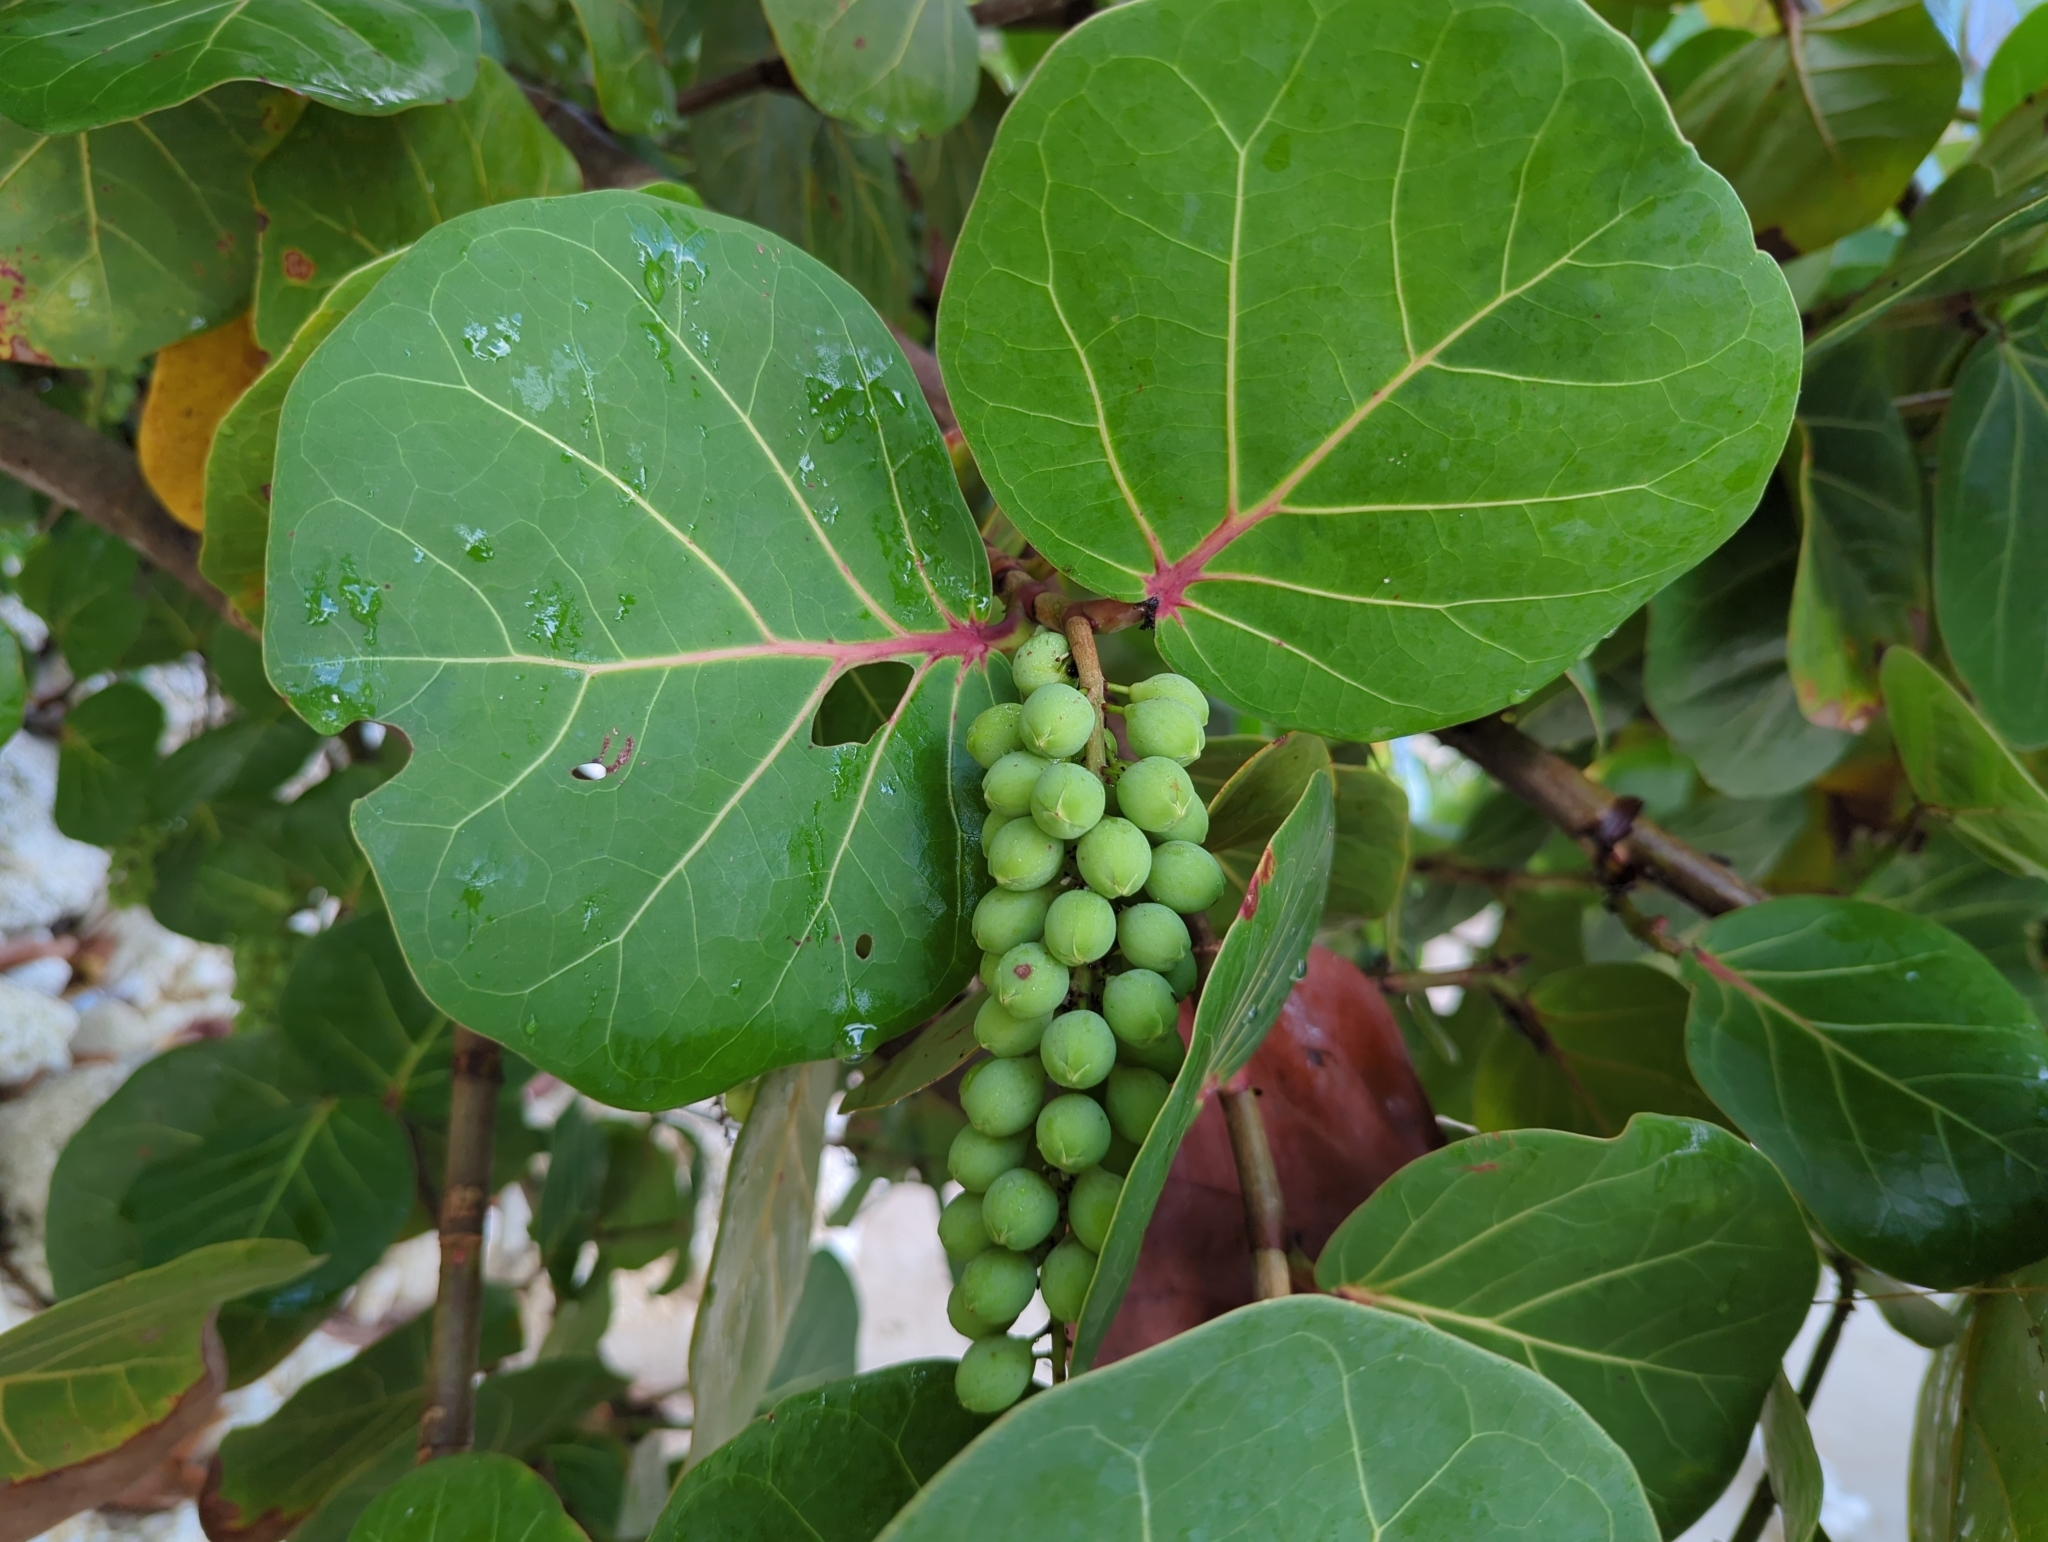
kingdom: Plantae
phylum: Tracheophyta
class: Magnoliopsida
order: Caryophyllales
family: Polygonaceae
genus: Coccoloba
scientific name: Coccoloba uvifera
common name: Seagrape
